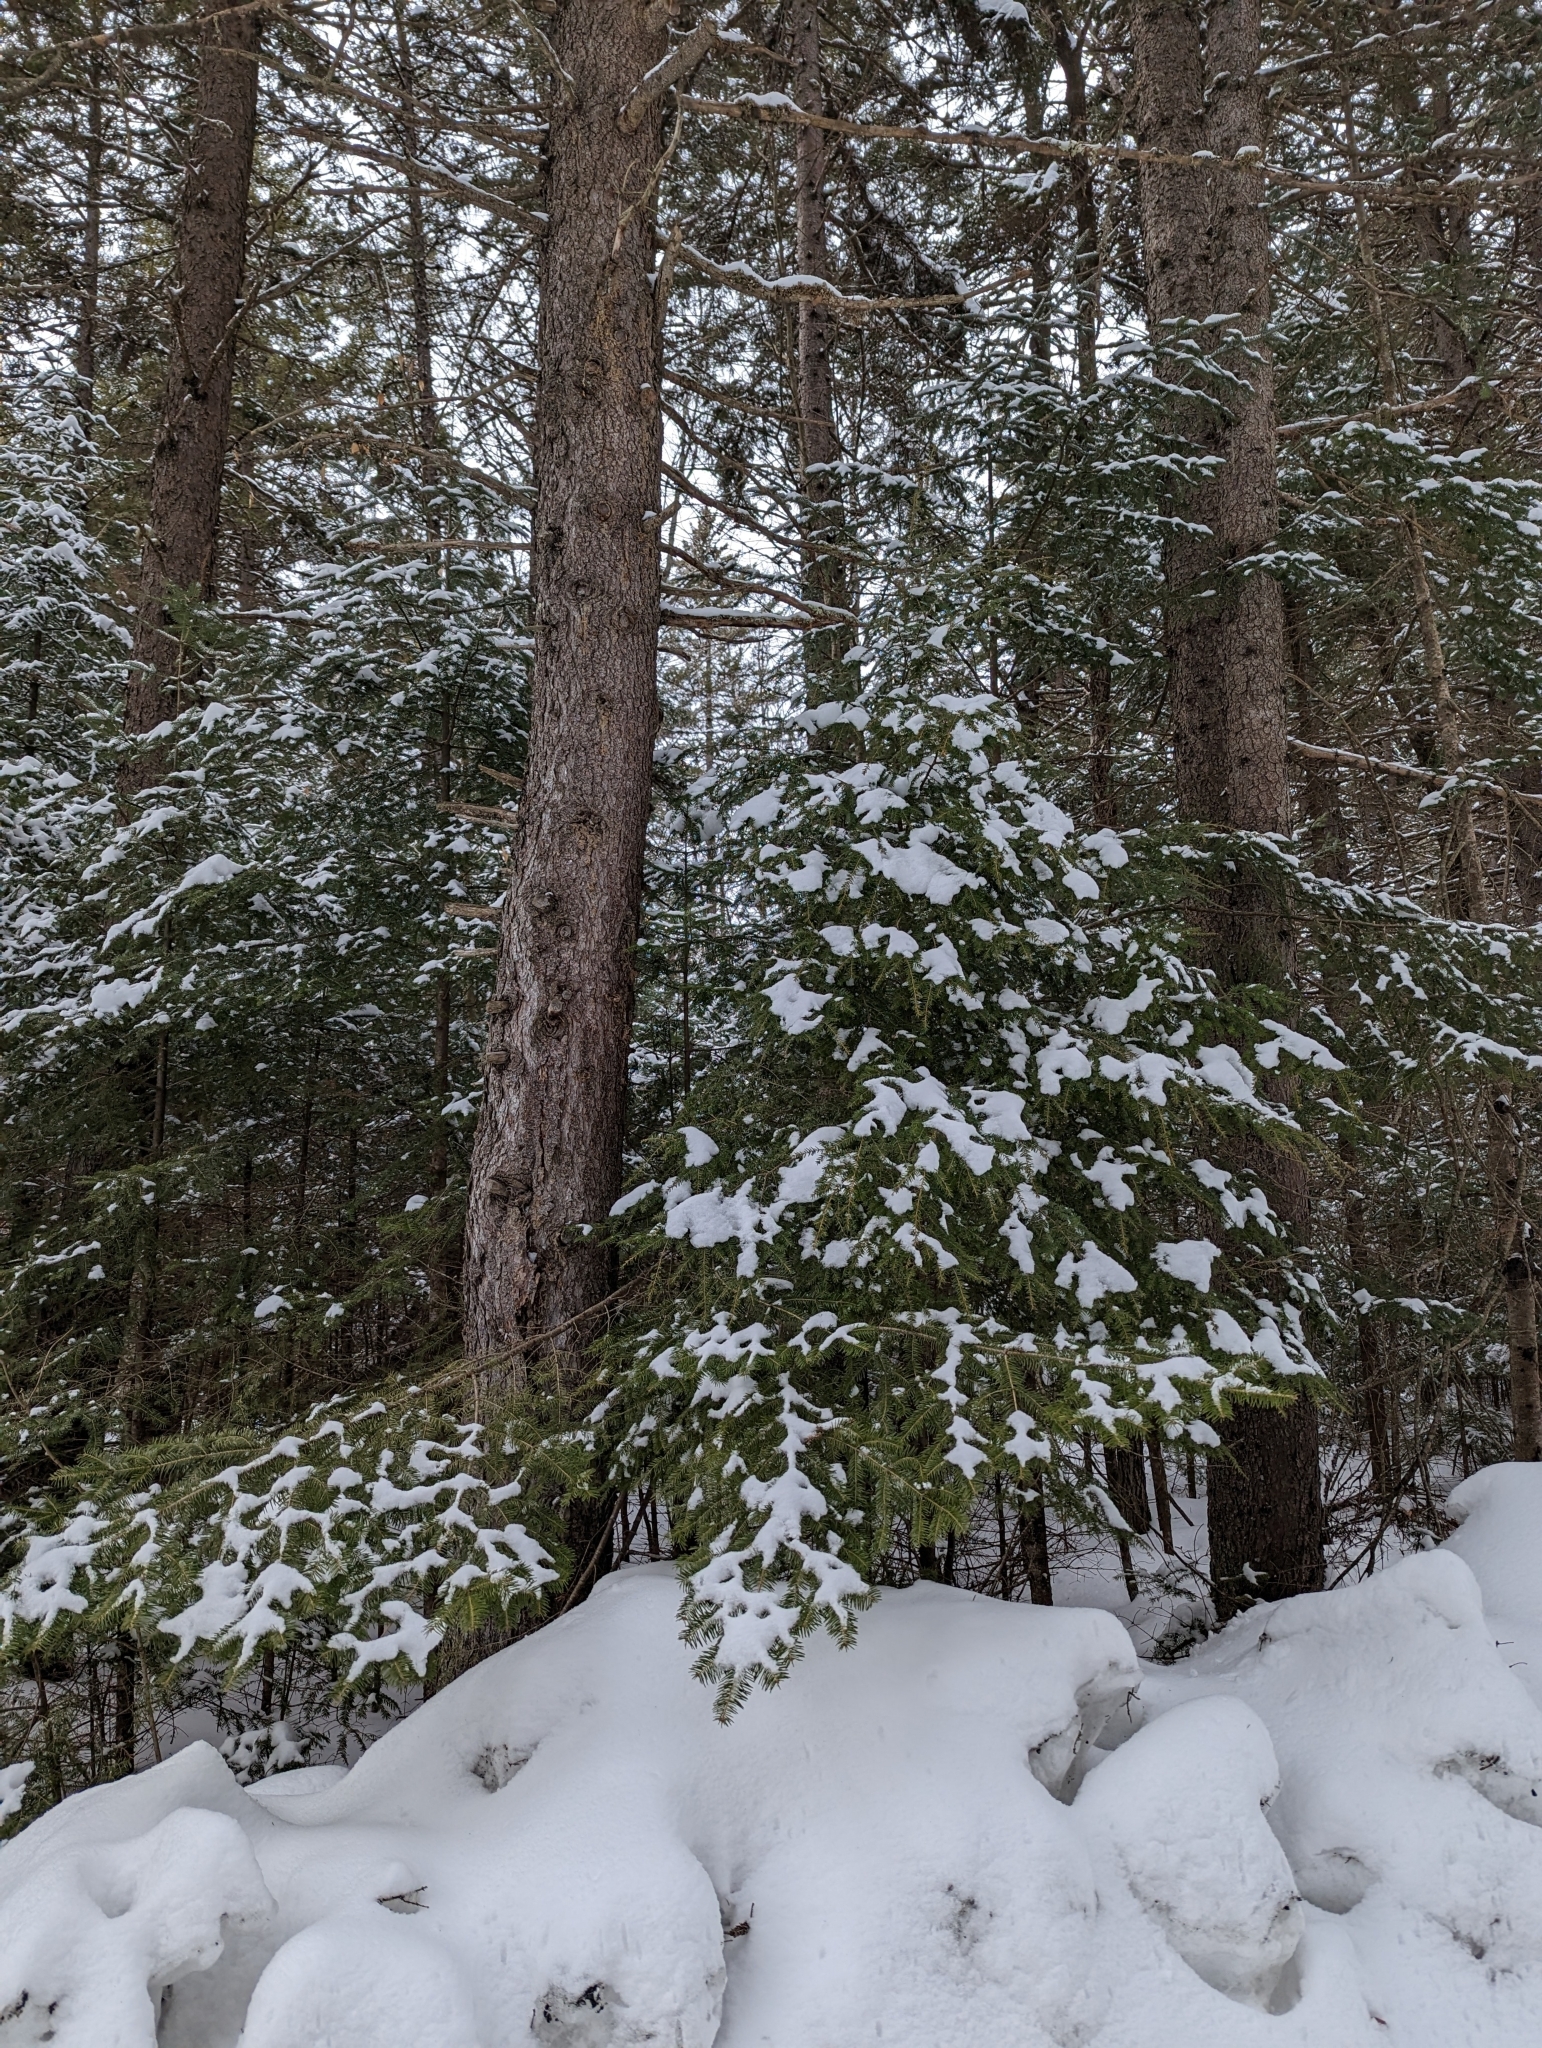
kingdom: Plantae
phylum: Tracheophyta
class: Pinopsida
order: Pinales
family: Pinaceae
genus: Abies
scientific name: Abies balsamea
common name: Balsam fir
